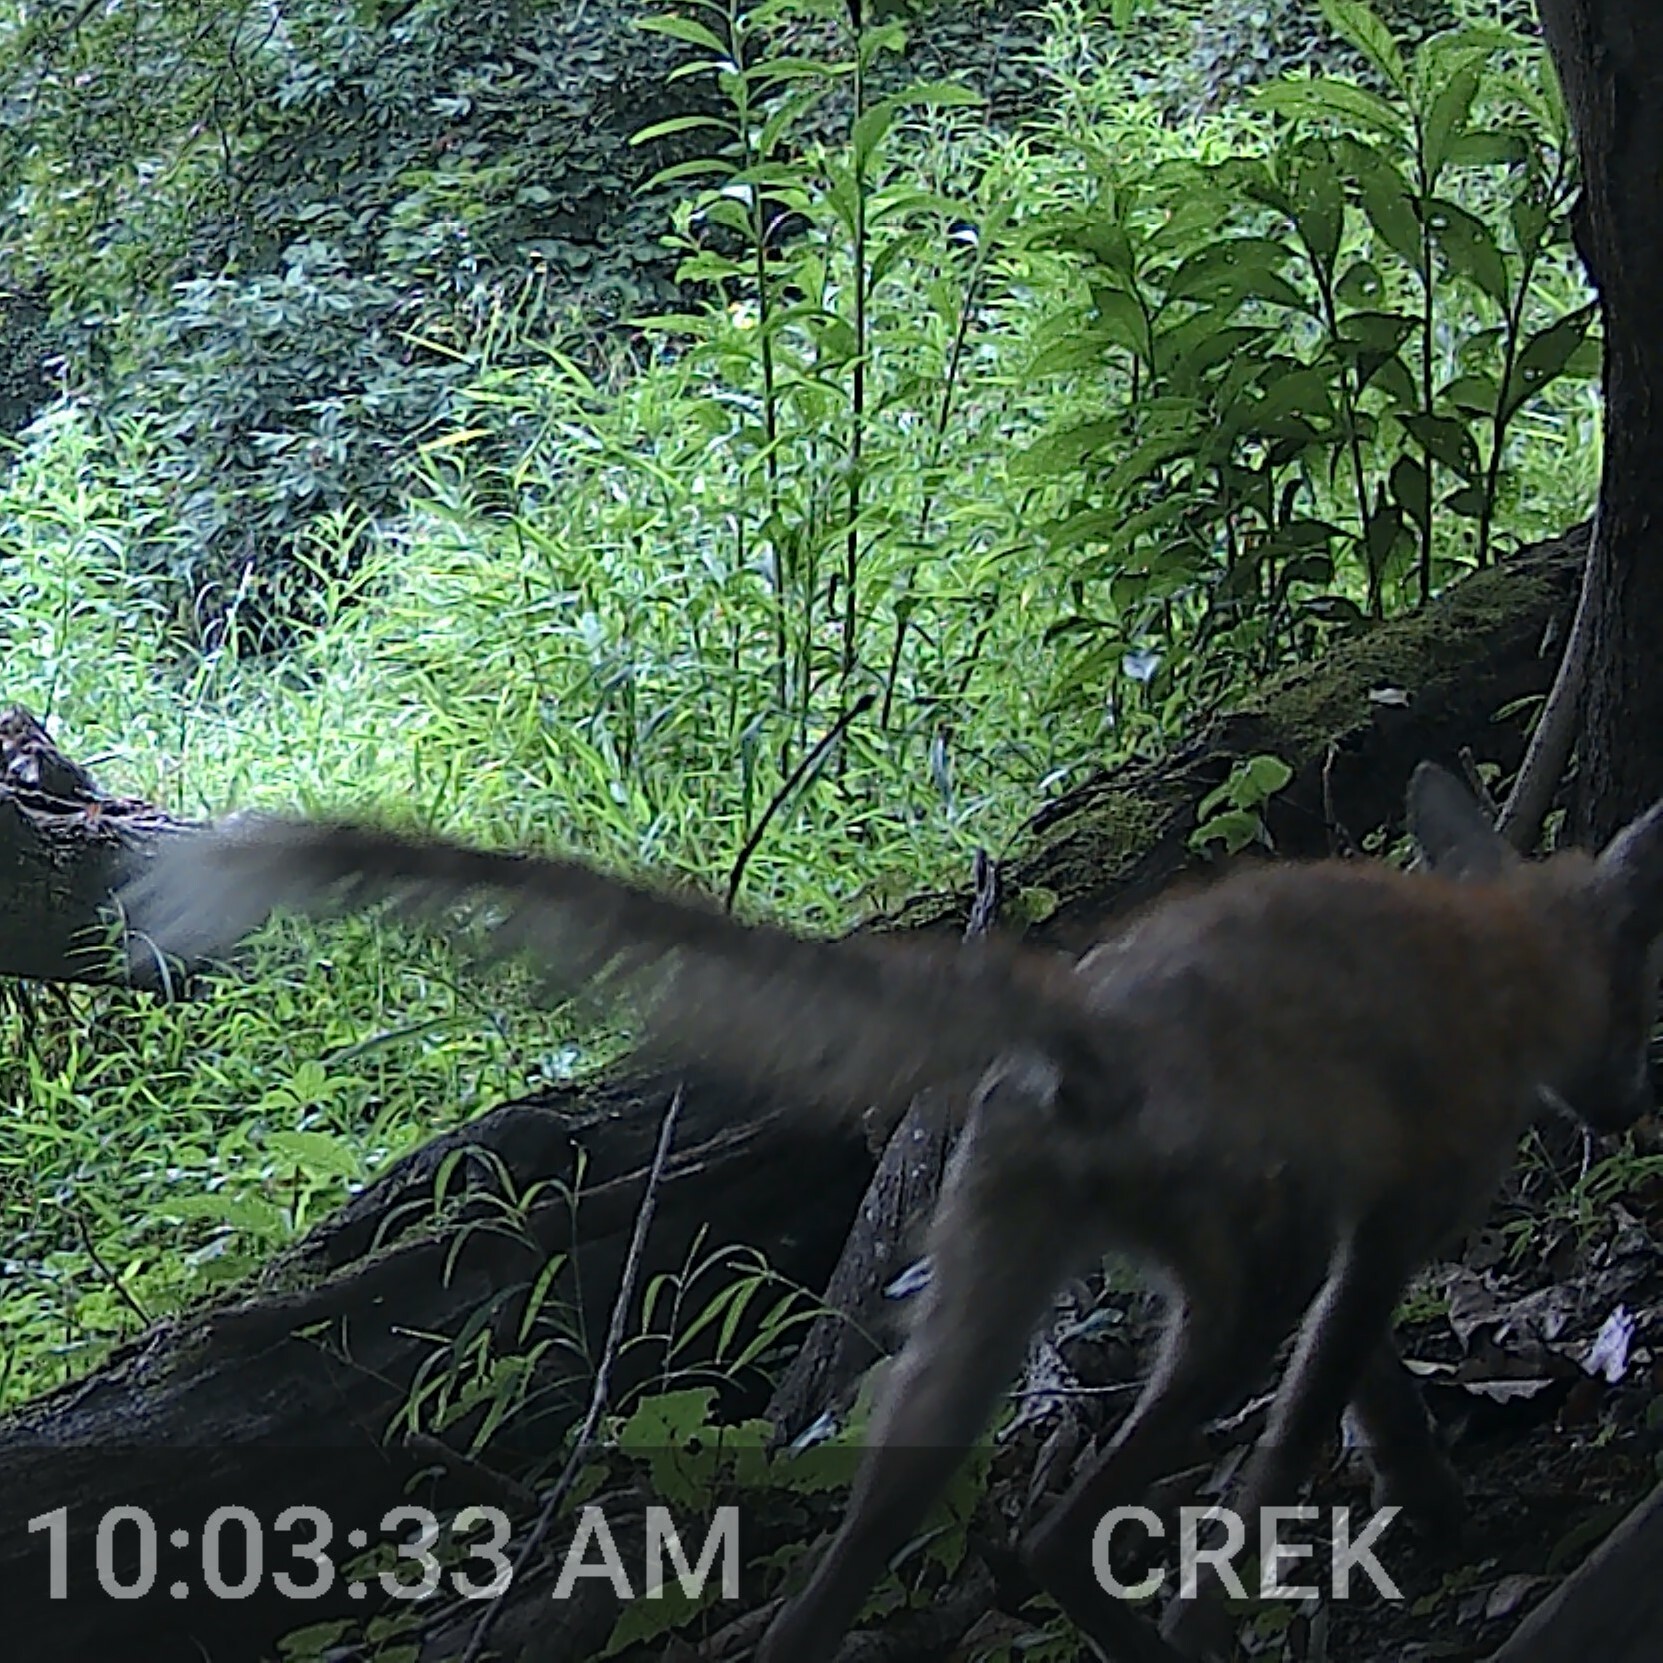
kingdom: Animalia
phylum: Chordata
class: Mammalia
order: Carnivora
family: Canidae
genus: Vulpes
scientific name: Vulpes vulpes
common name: Red fox
